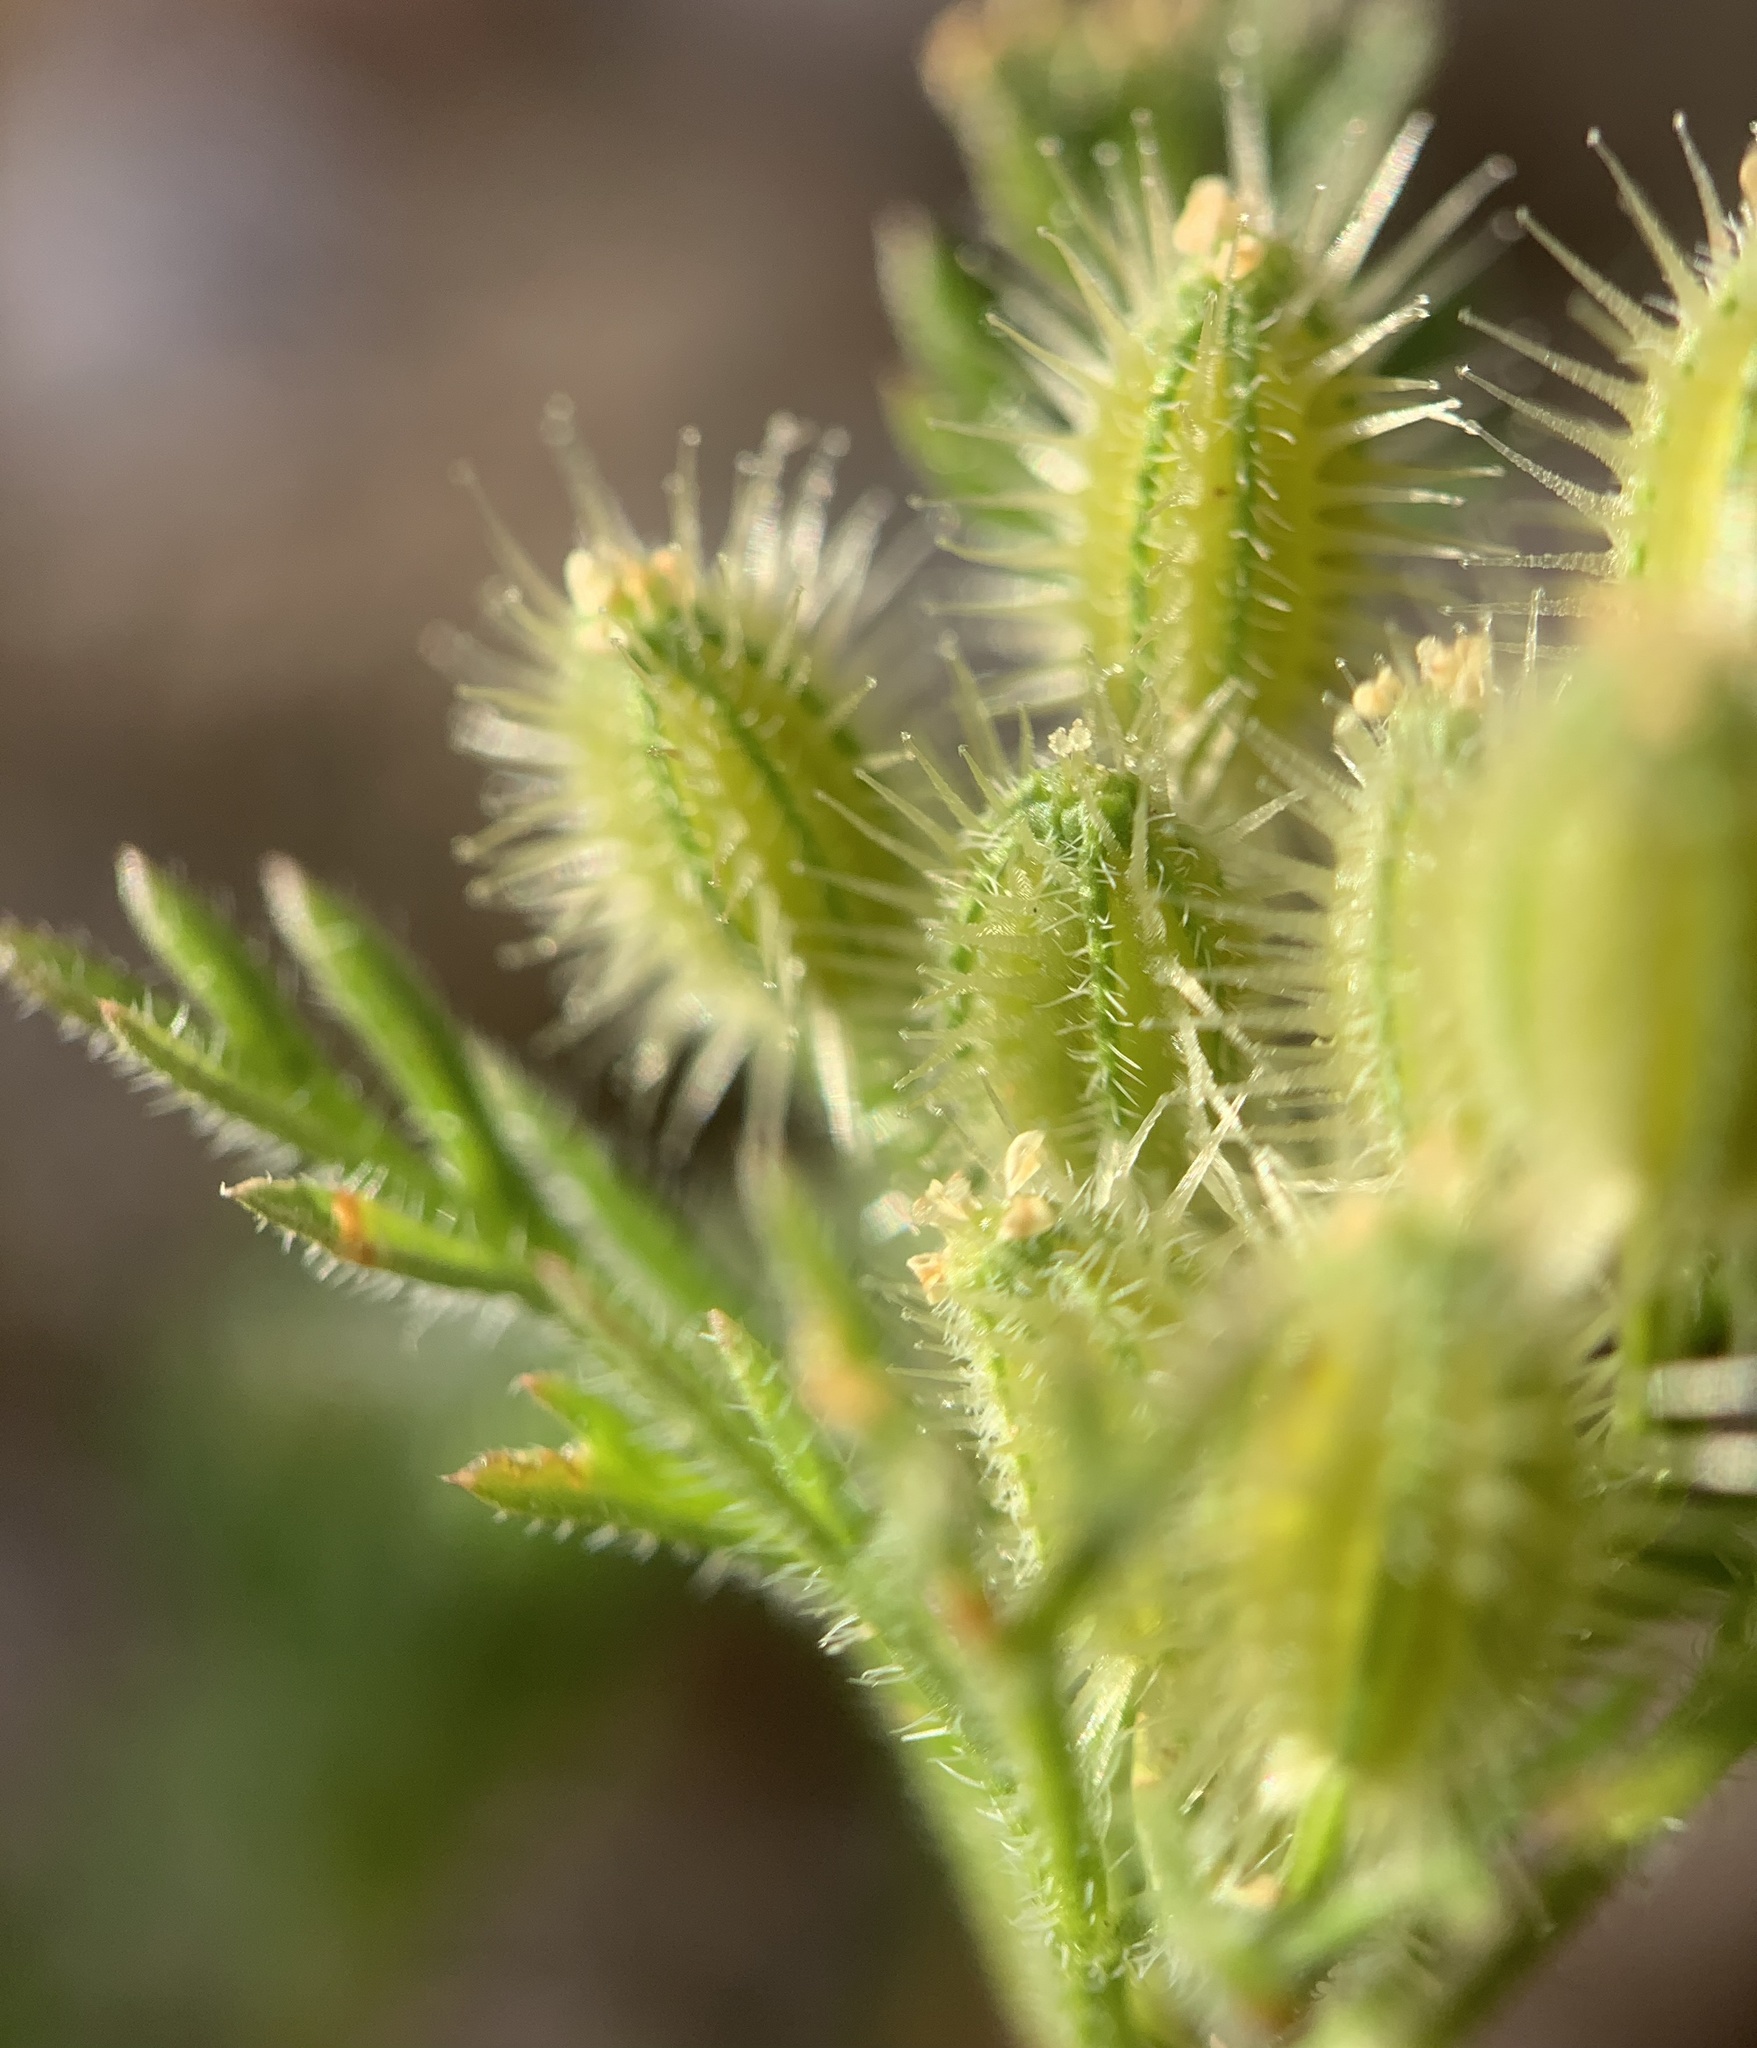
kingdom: Plantae
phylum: Tracheophyta
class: Magnoliopsida
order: Apiales
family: Apiaceae
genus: Daucus
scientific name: Daucus pusillus
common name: Southwest wild carrot
